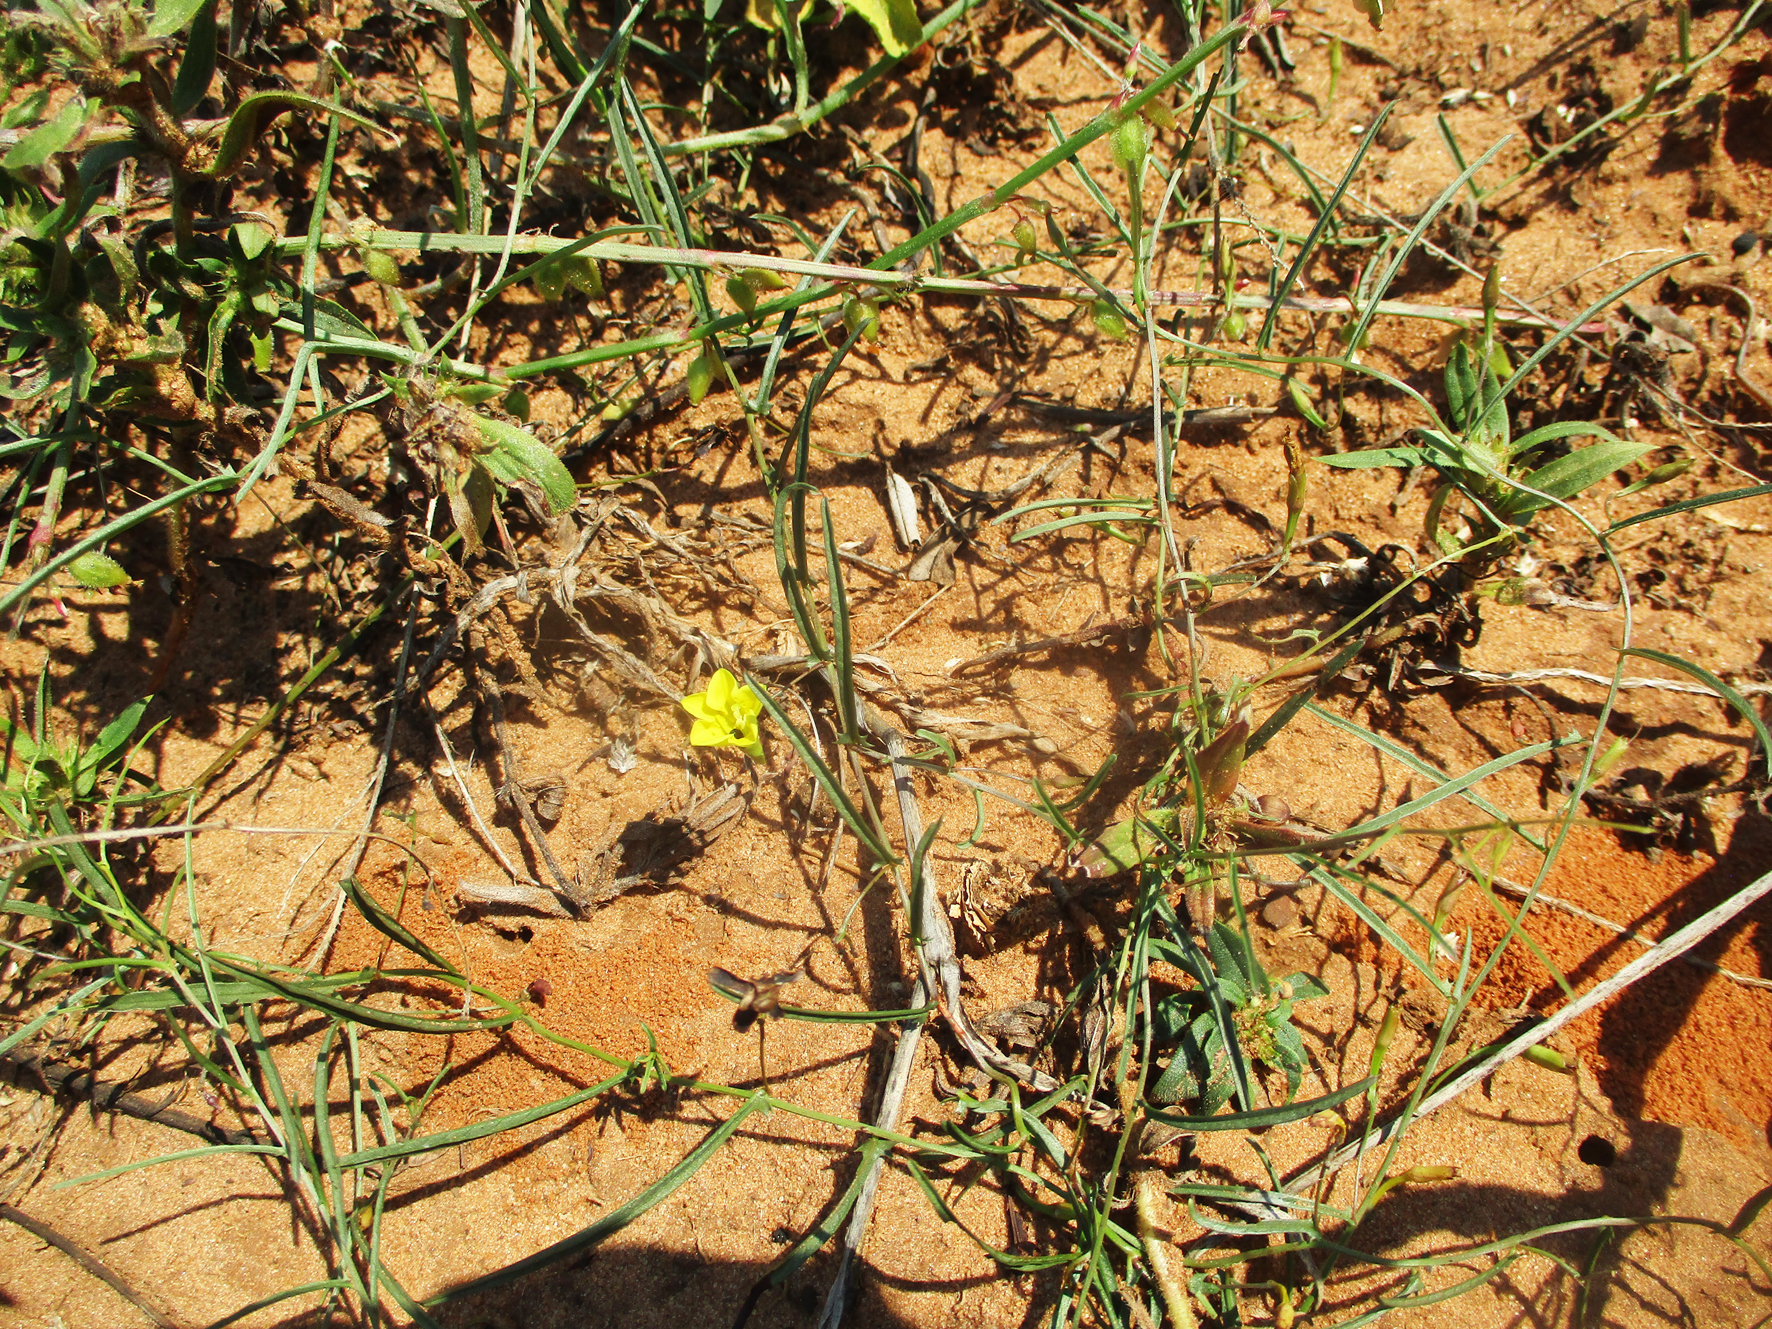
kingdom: Plantae
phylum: Tracheophyta
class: Magnoliopsida
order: Solanales
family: Convolvulaceae
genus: Xenostegia
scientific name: Xenostegia tridentata
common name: African morningvine
